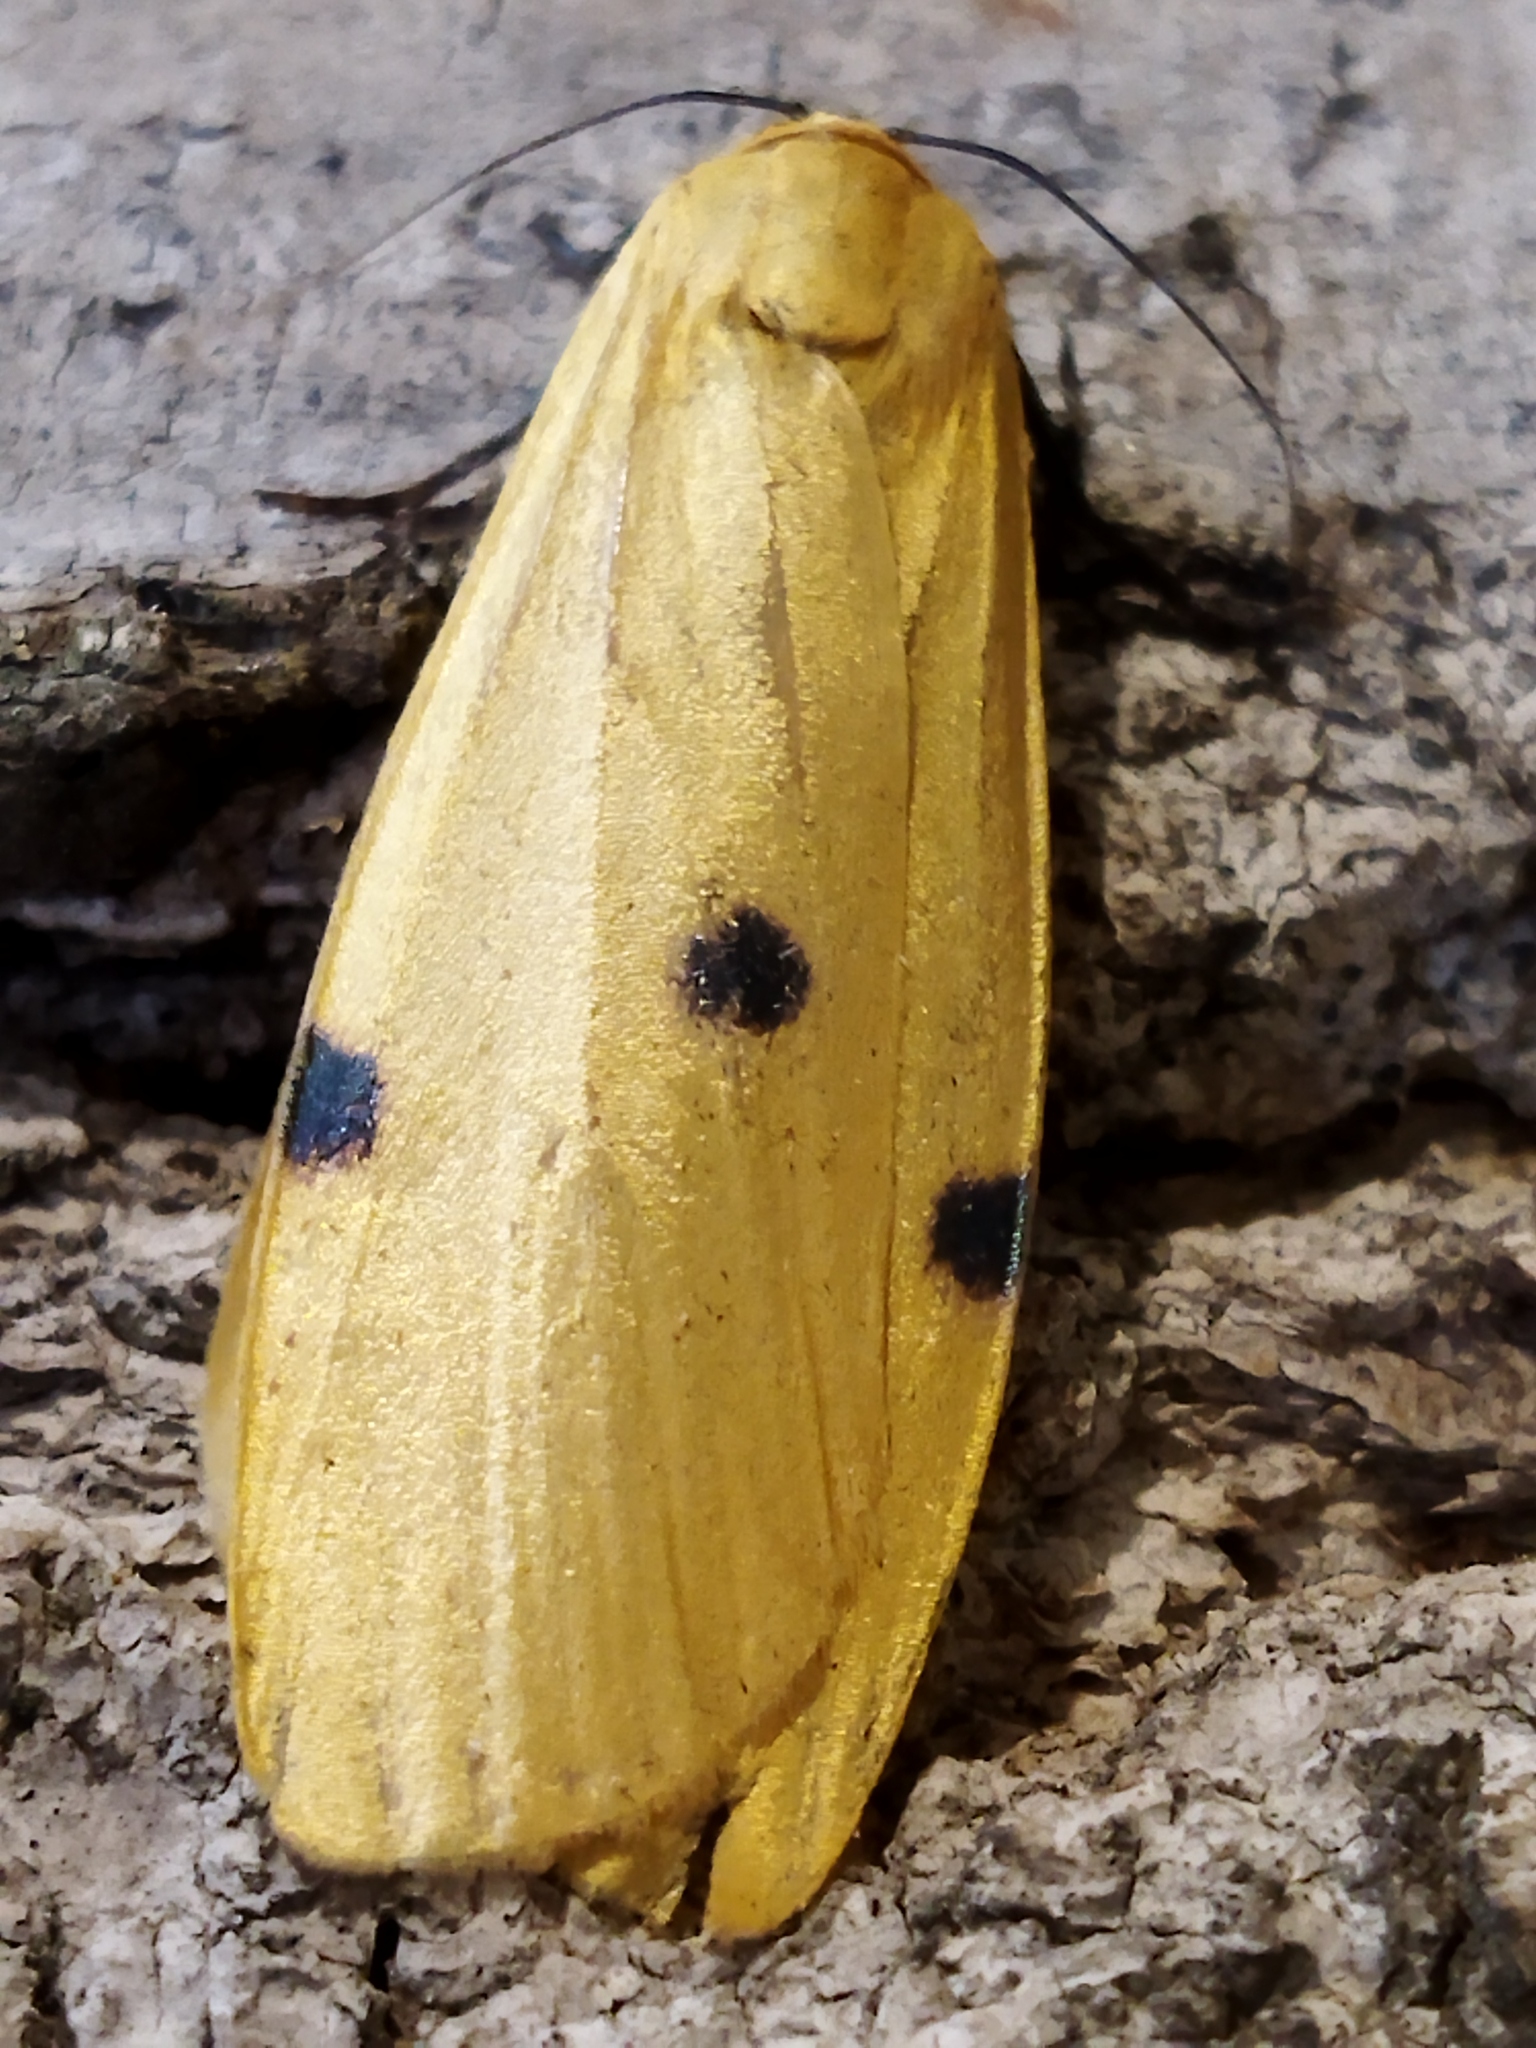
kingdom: Animalia
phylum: Arthropoda
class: Insecta
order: Lepidoptera
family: Erebidae
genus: Lithosia
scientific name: Lithosia quadra
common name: Four-spotted footman
